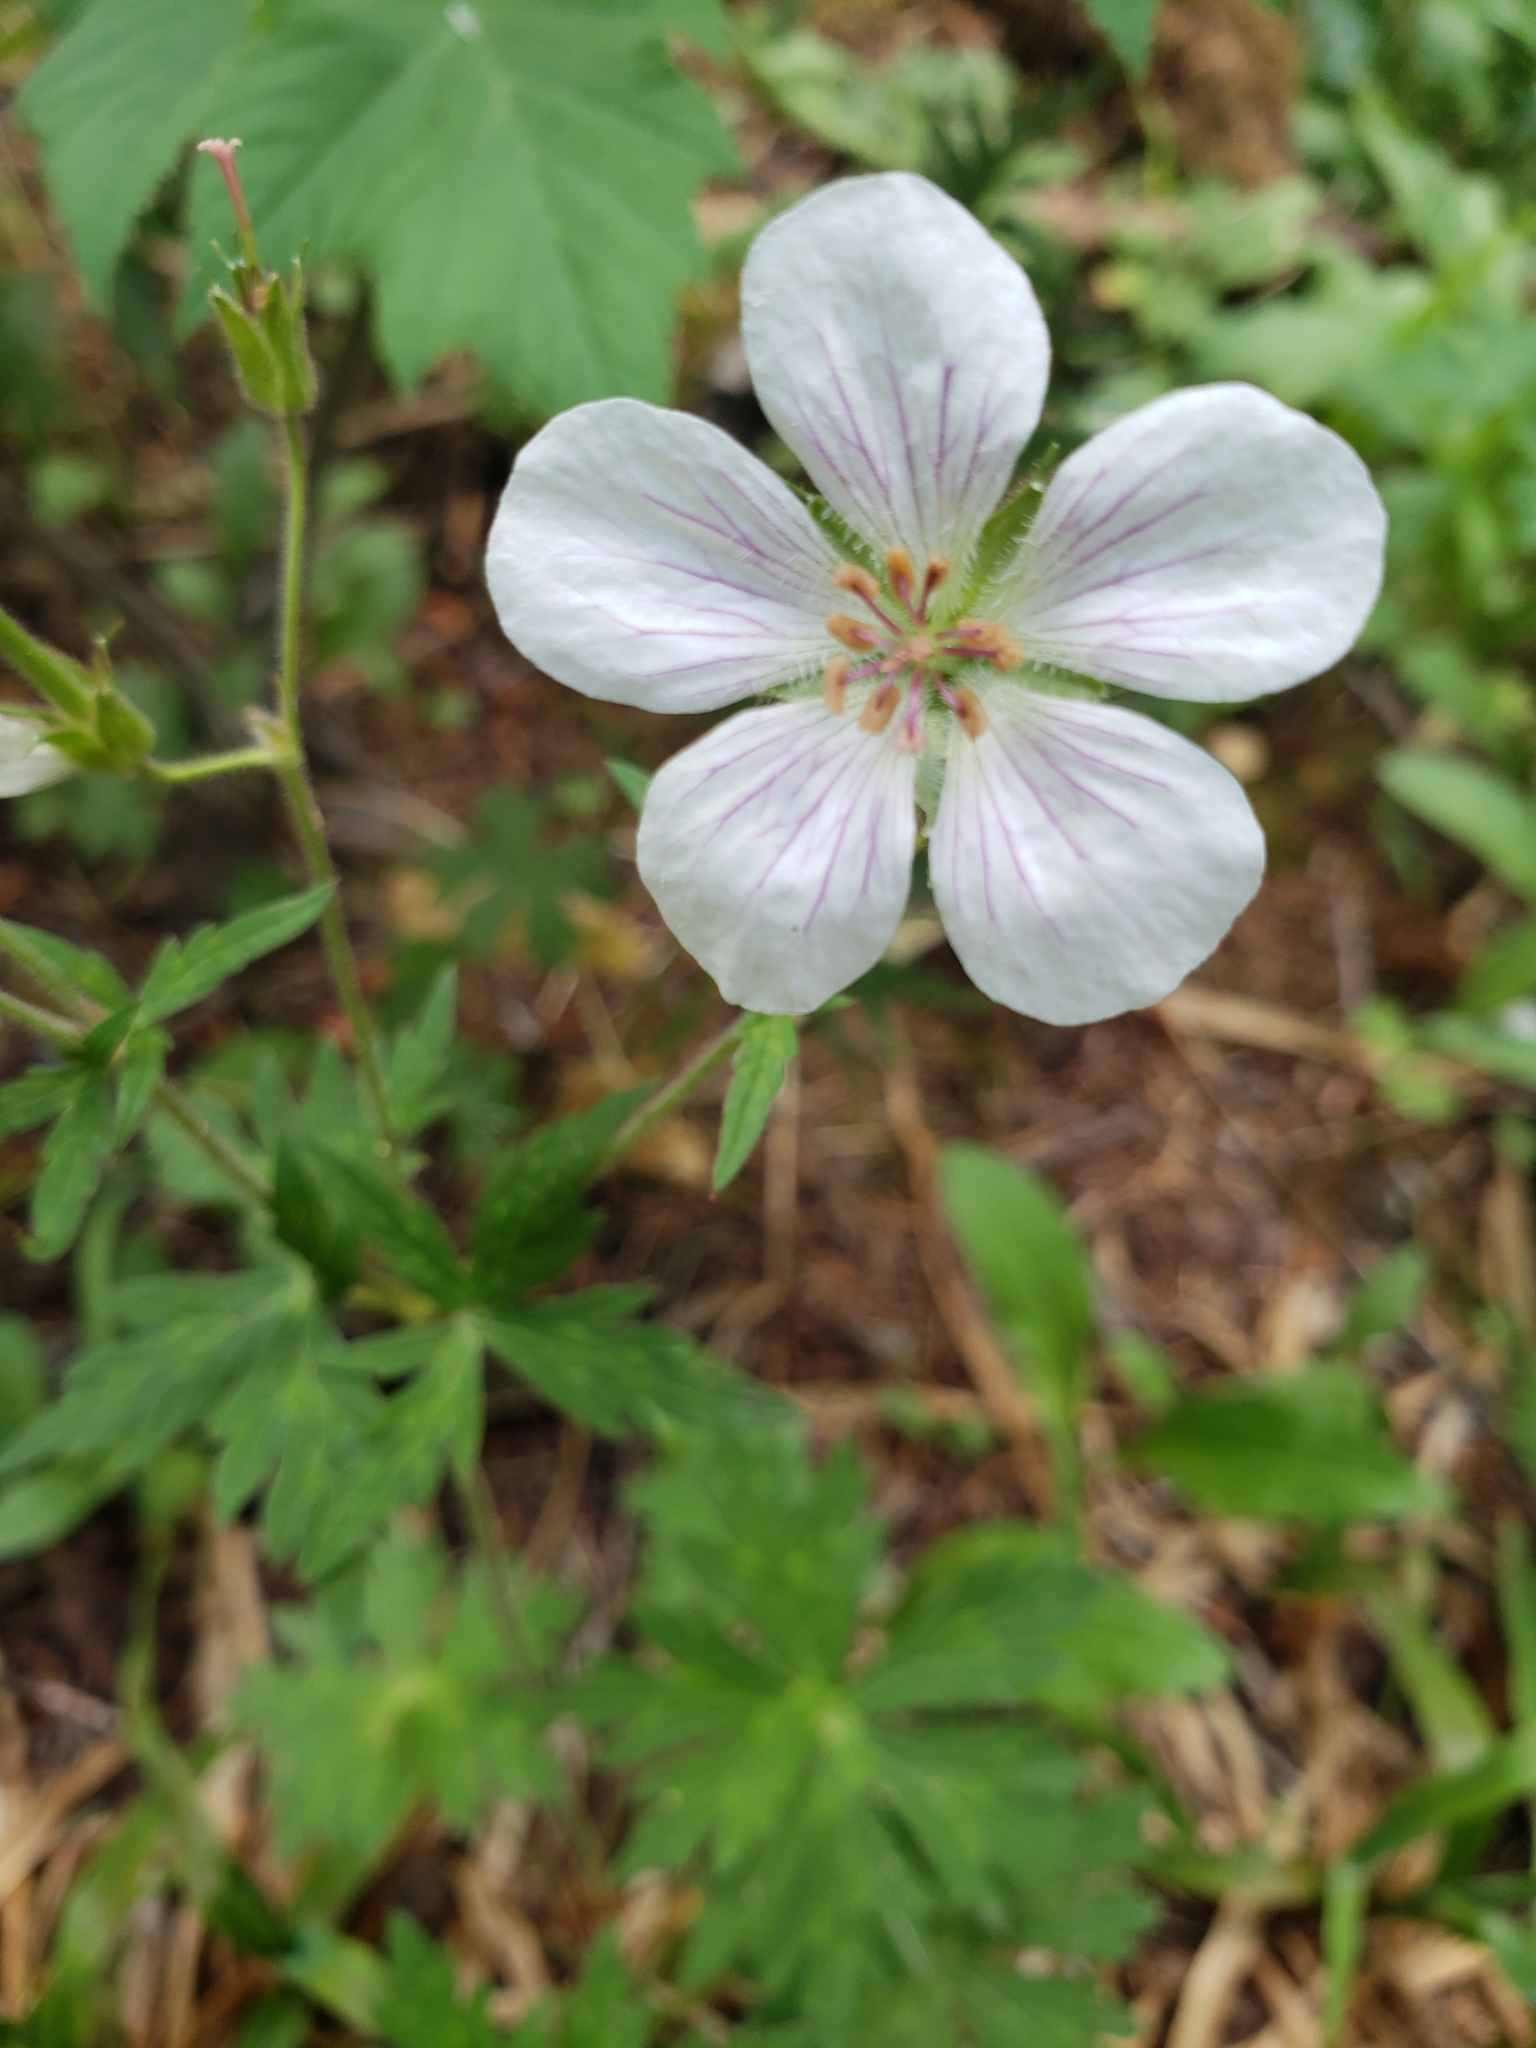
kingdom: Plantae
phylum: Tracheophyta
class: Magnoliopsida
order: Geraniales
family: Geraniaceae
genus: Geranium
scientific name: Geranium richardsonii
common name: Richardson's crane's-bill
